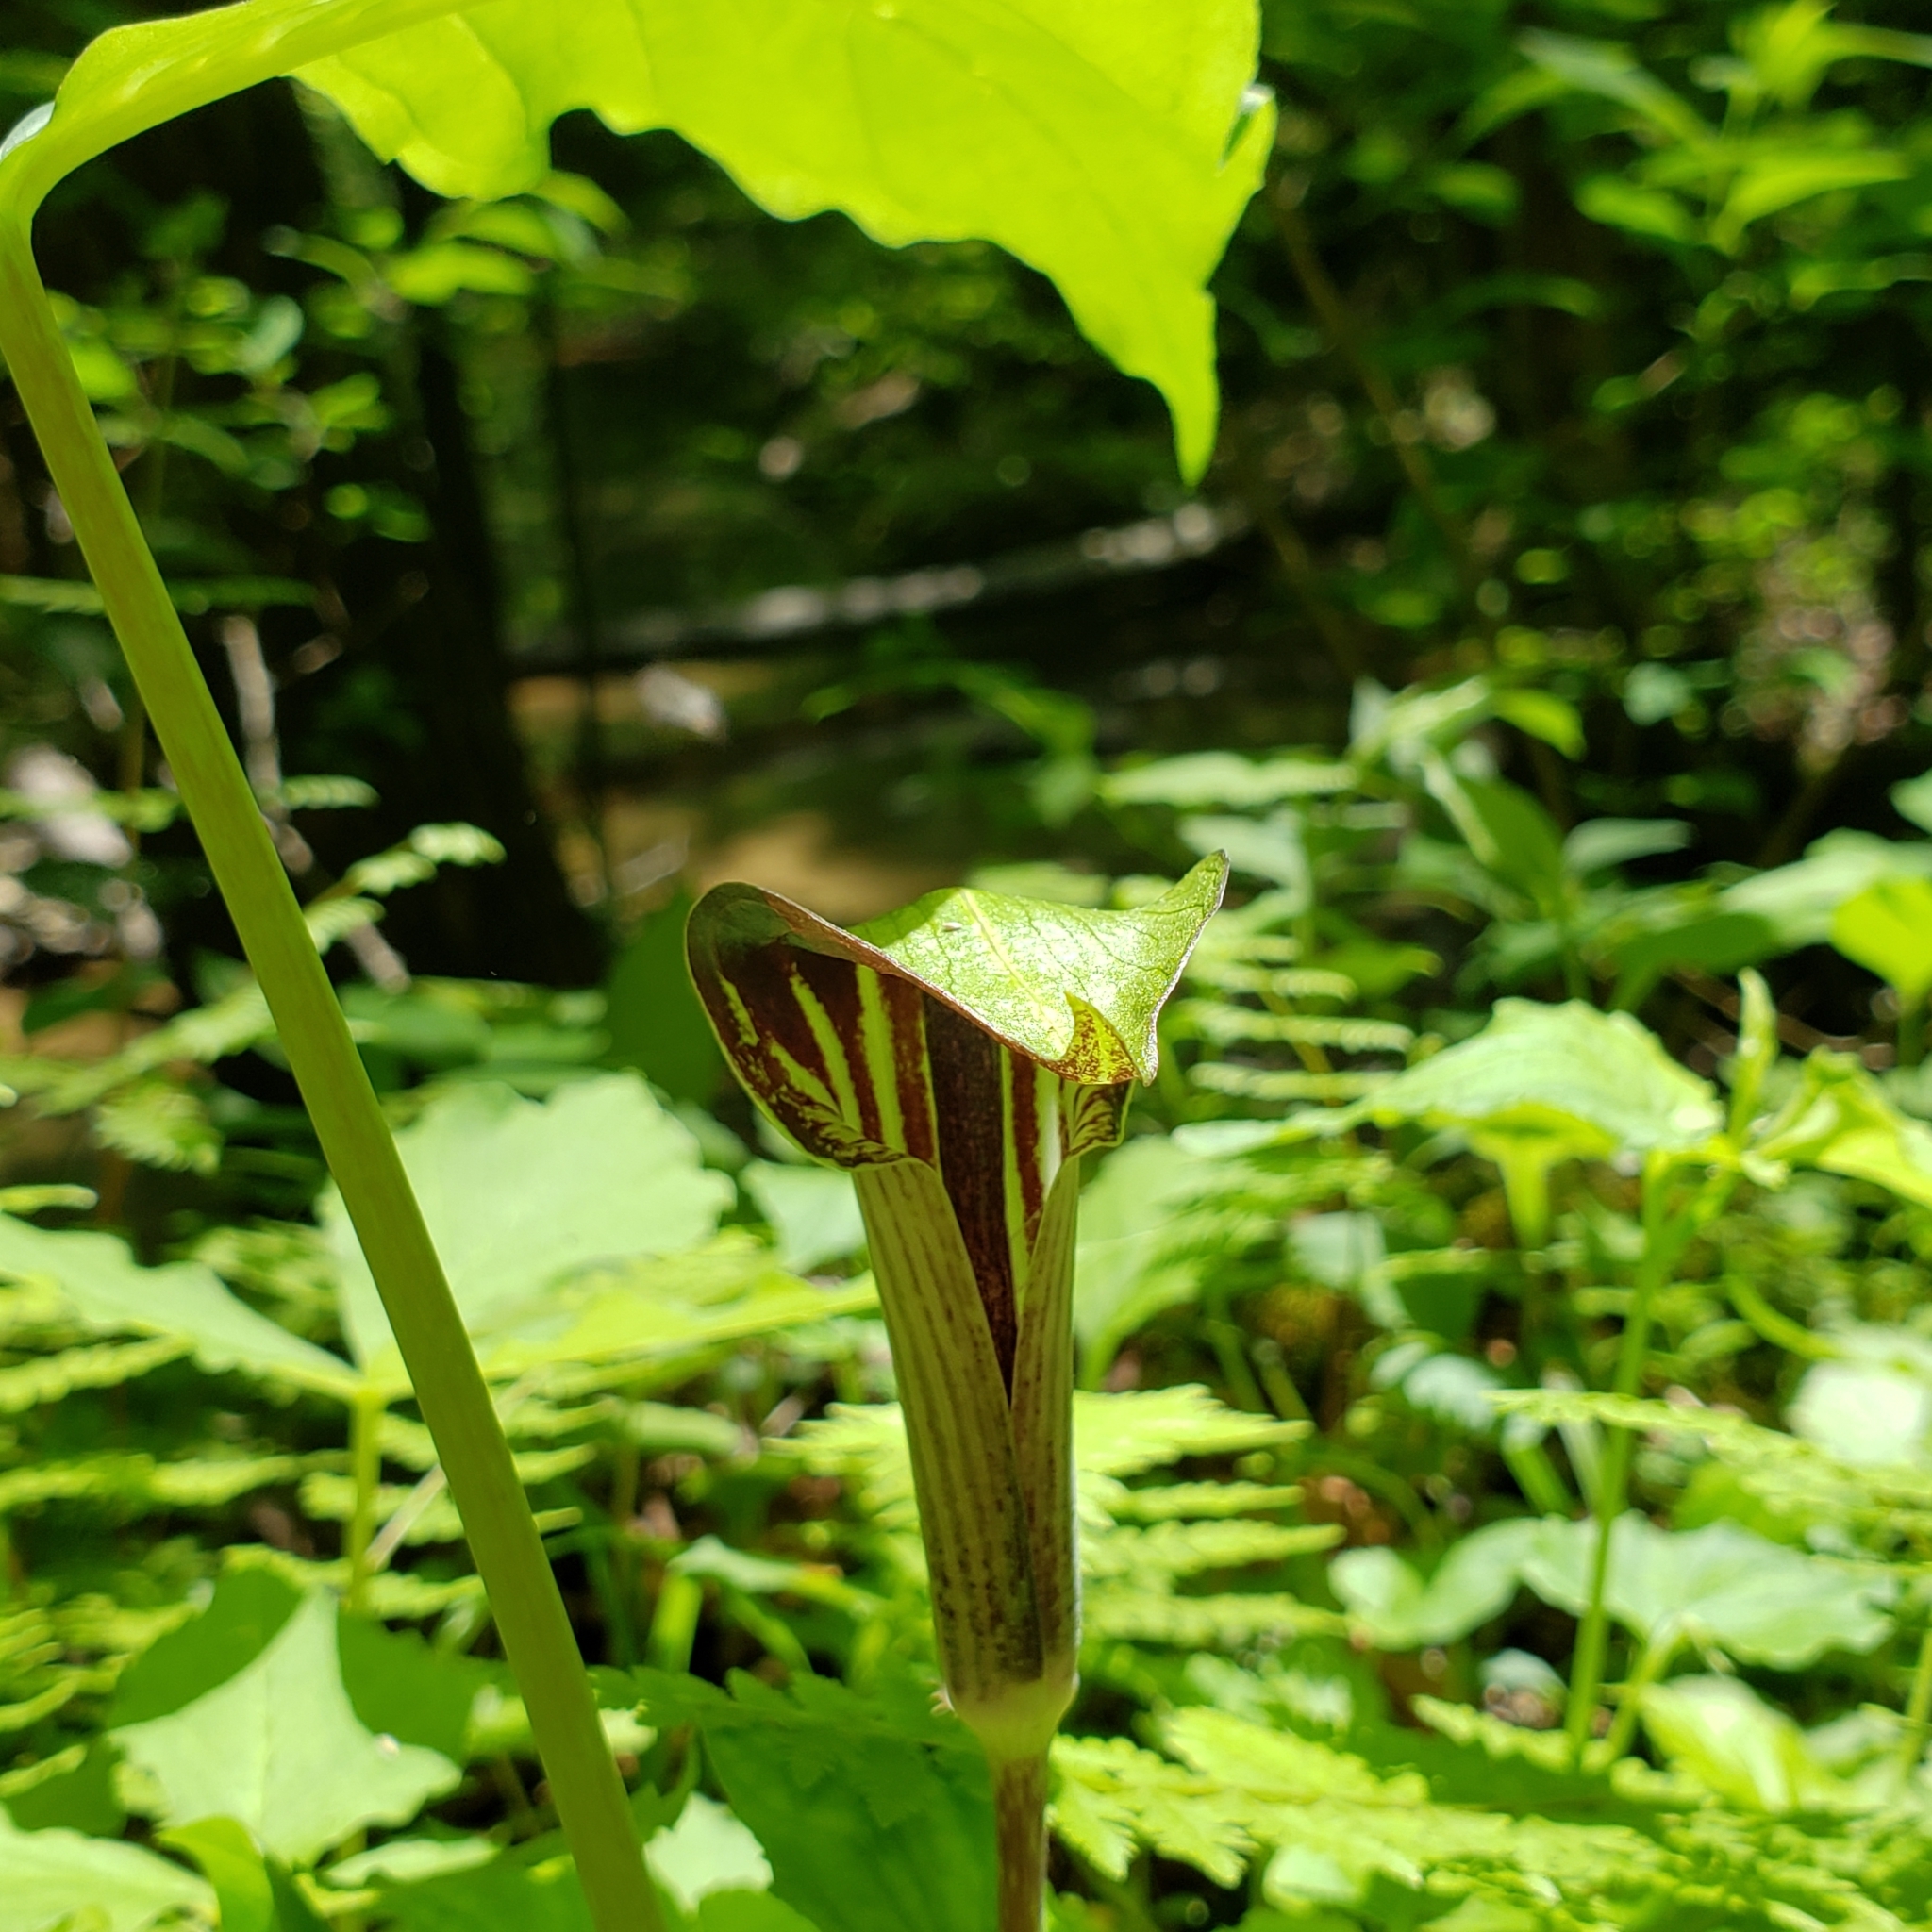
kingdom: Plantae
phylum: Tracheophyta
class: Liliopsida
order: Alismatales
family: Araceae
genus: Arisaema
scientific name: Arisaema triphyllum
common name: Jack-in-the-pulpit
